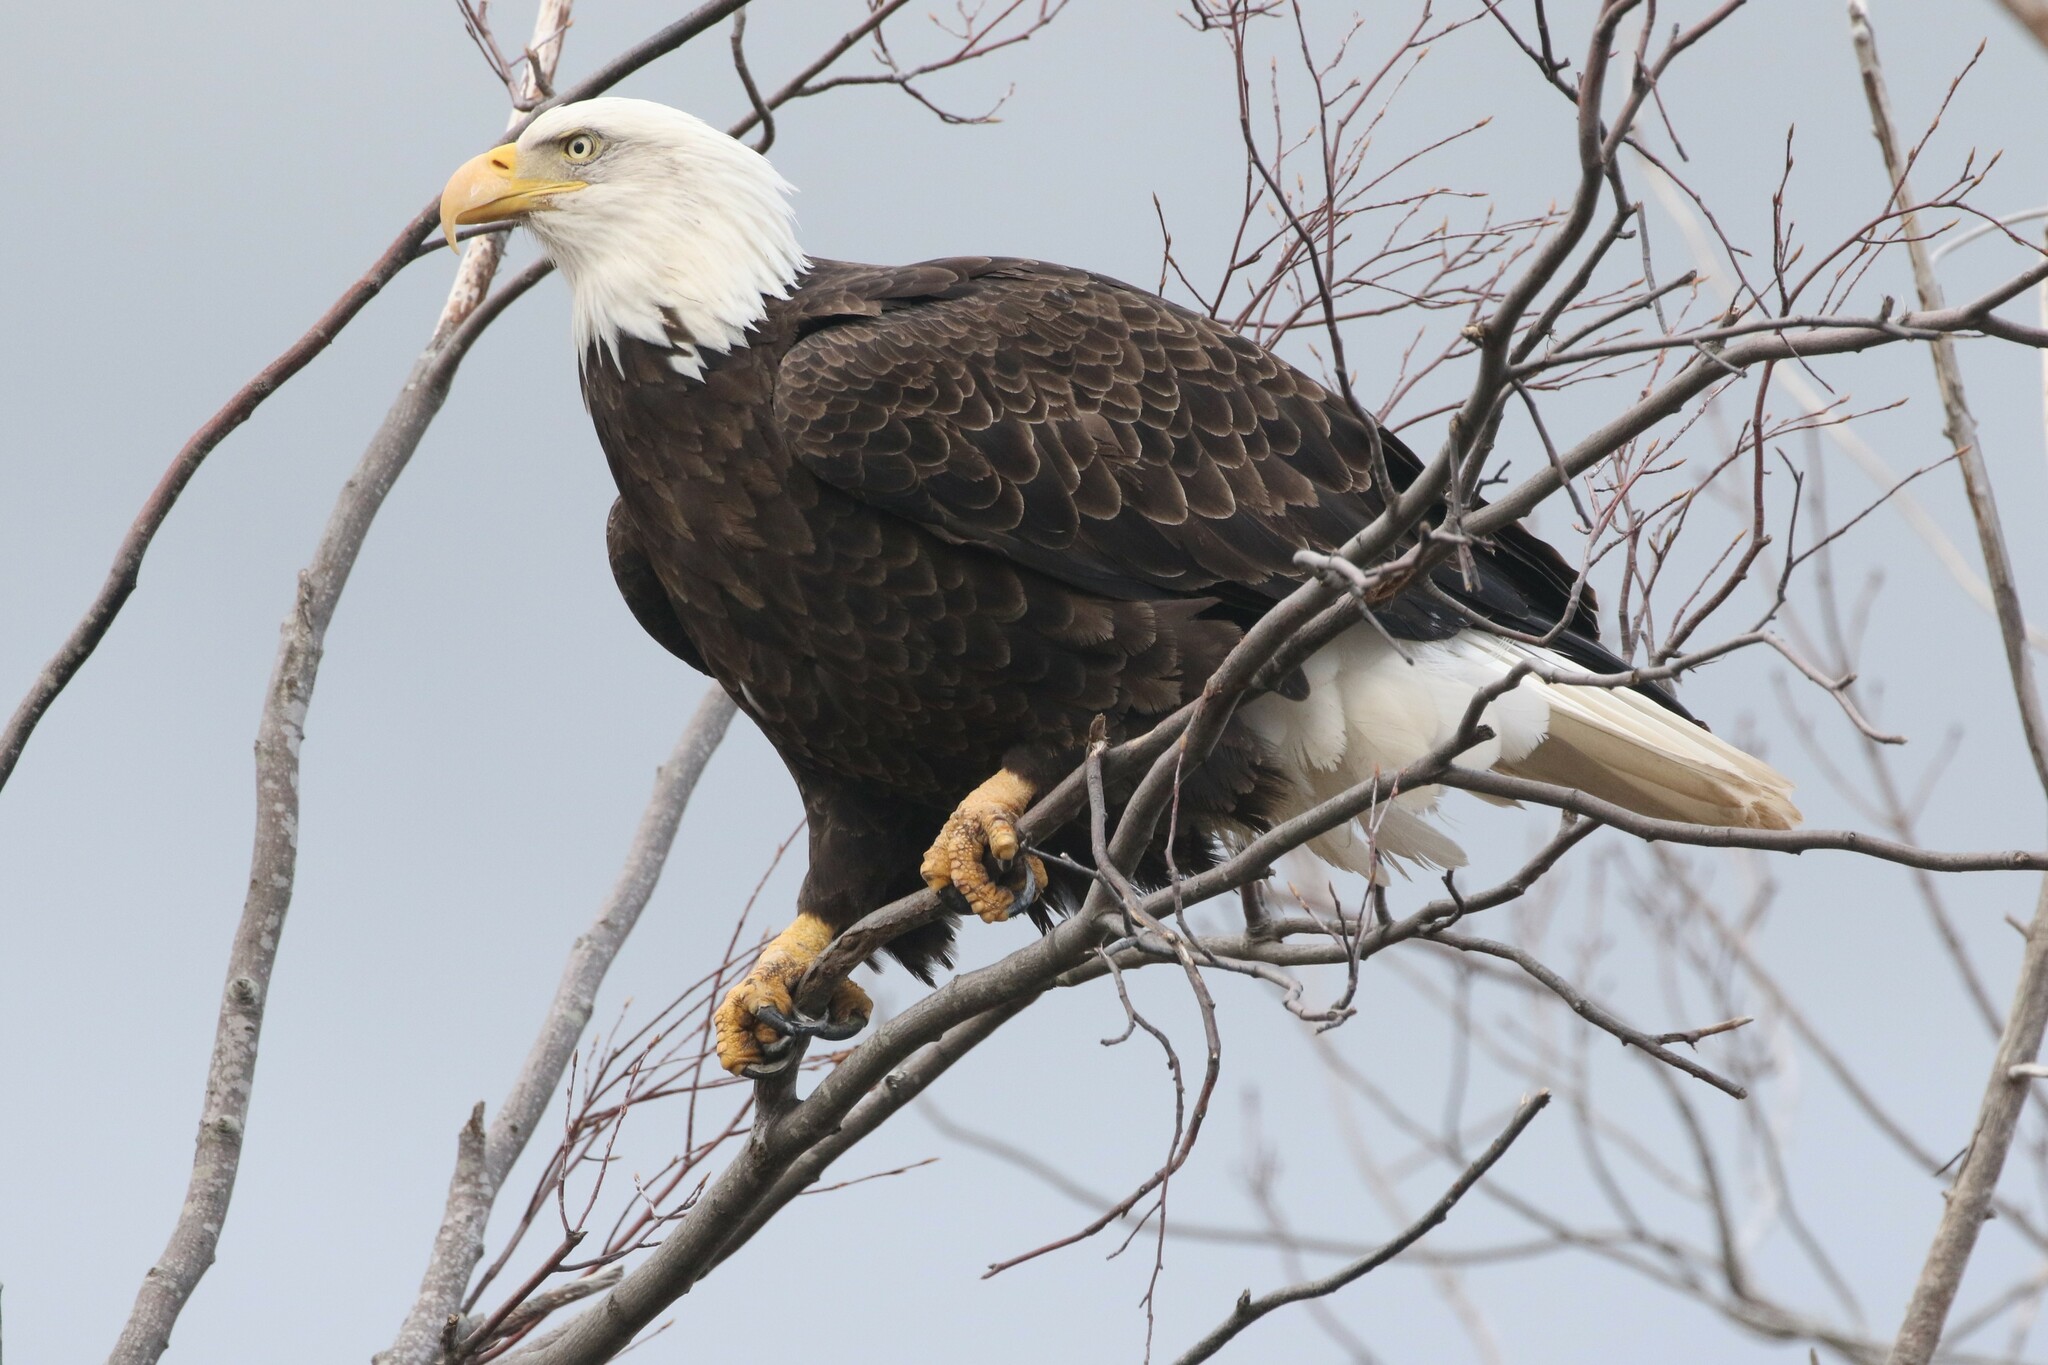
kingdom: Animalia
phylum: Chordata
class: Aves
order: Accipitriformes
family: Accipitridae
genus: Haliaeetus
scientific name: Haliaeetus leucocephalus
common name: Bald eagle
